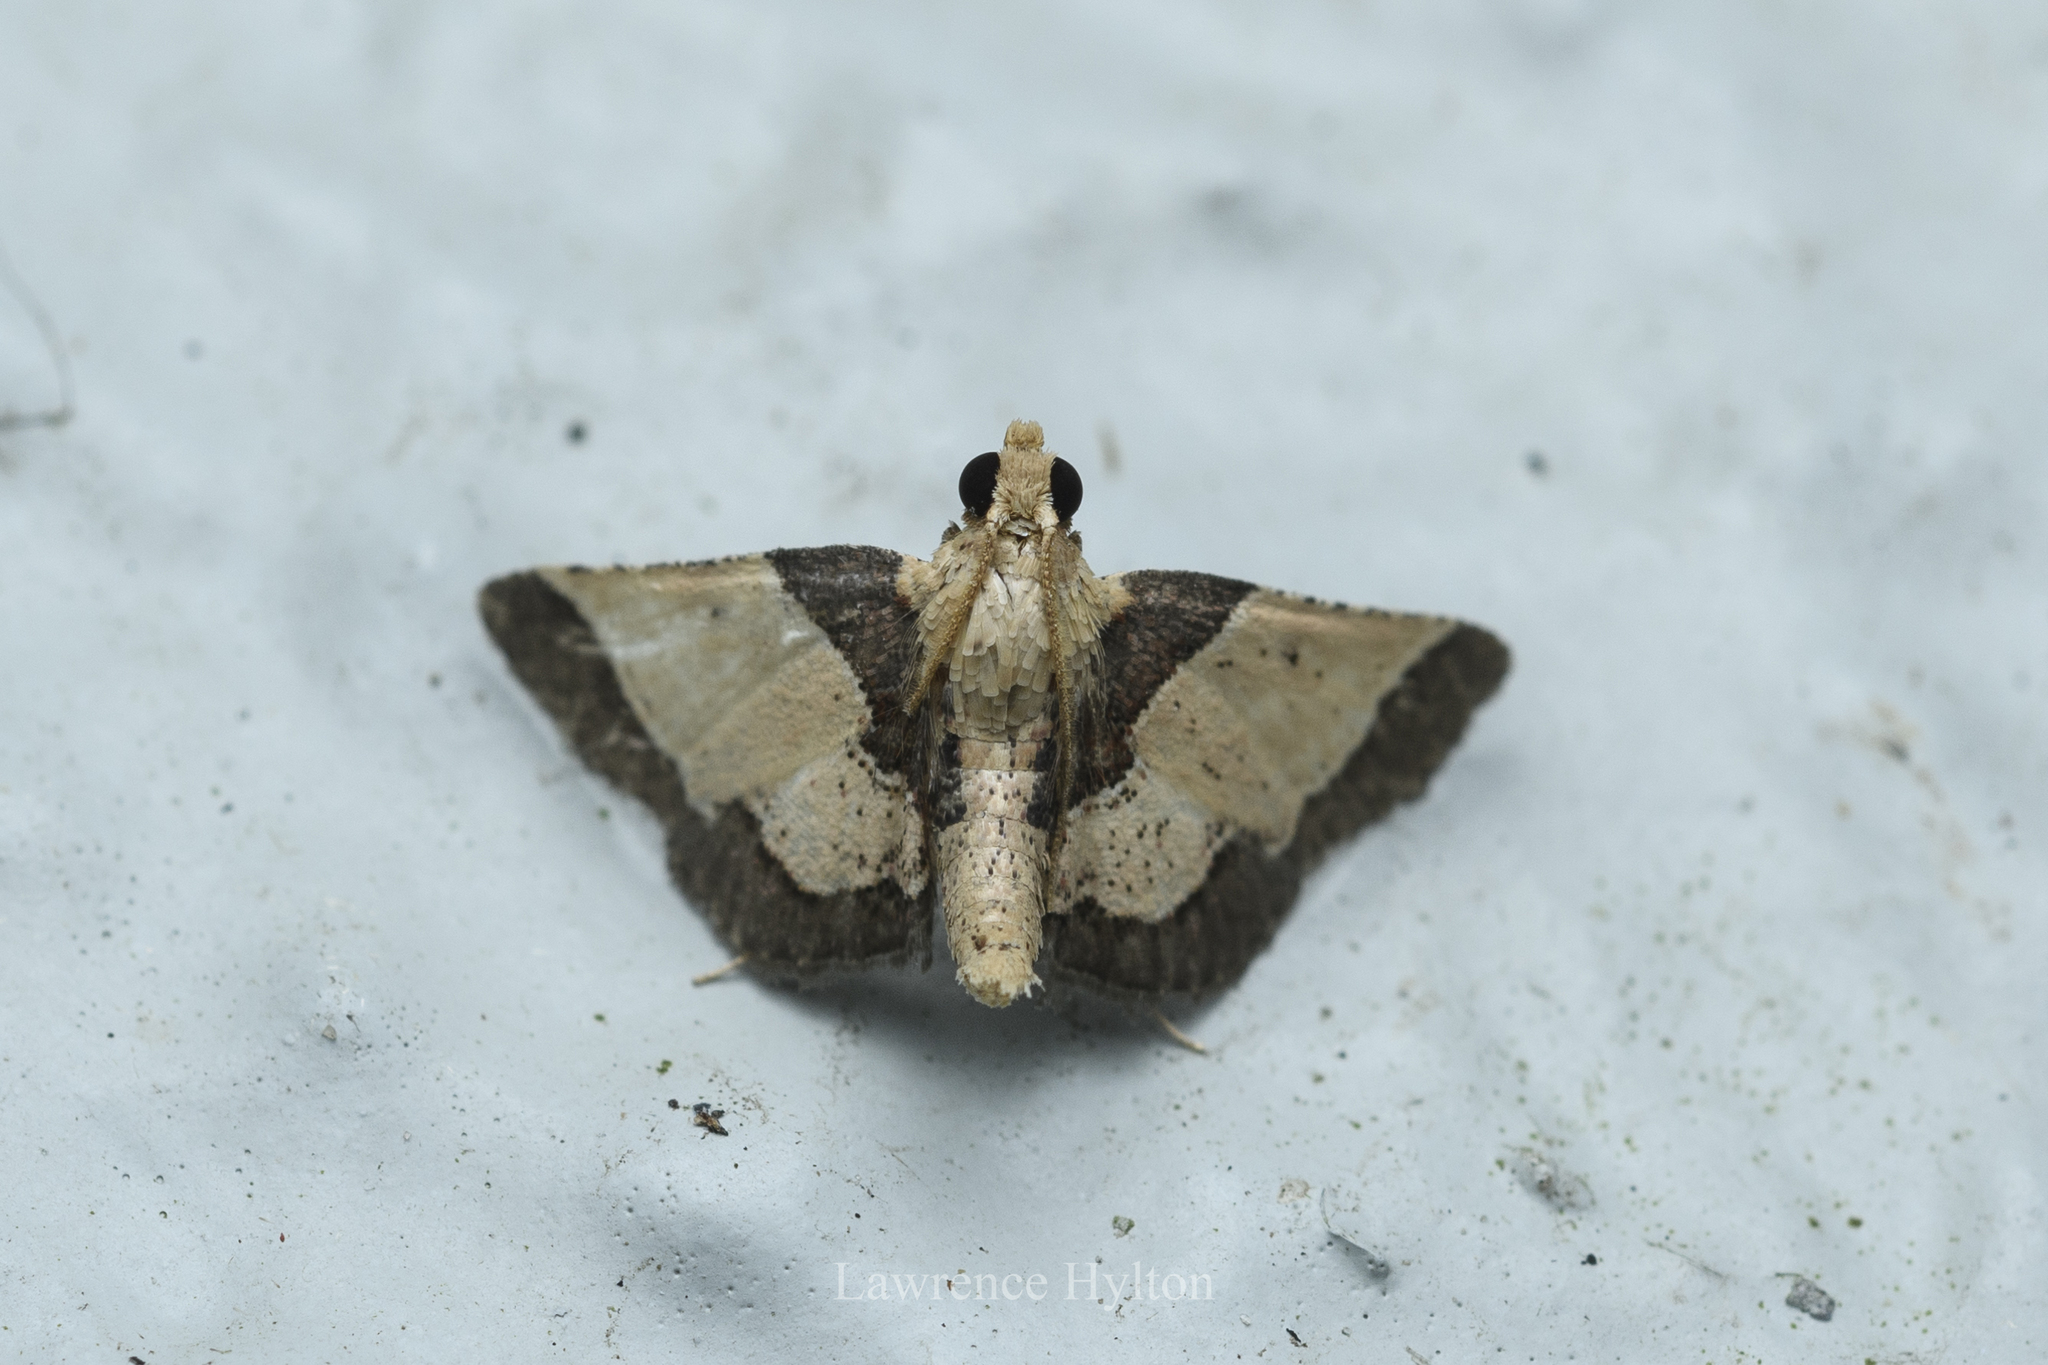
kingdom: Animalia
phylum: Arthropoda
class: Insecta
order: Lepidoptera
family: Pyralidae
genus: Zitha
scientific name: Zitha
